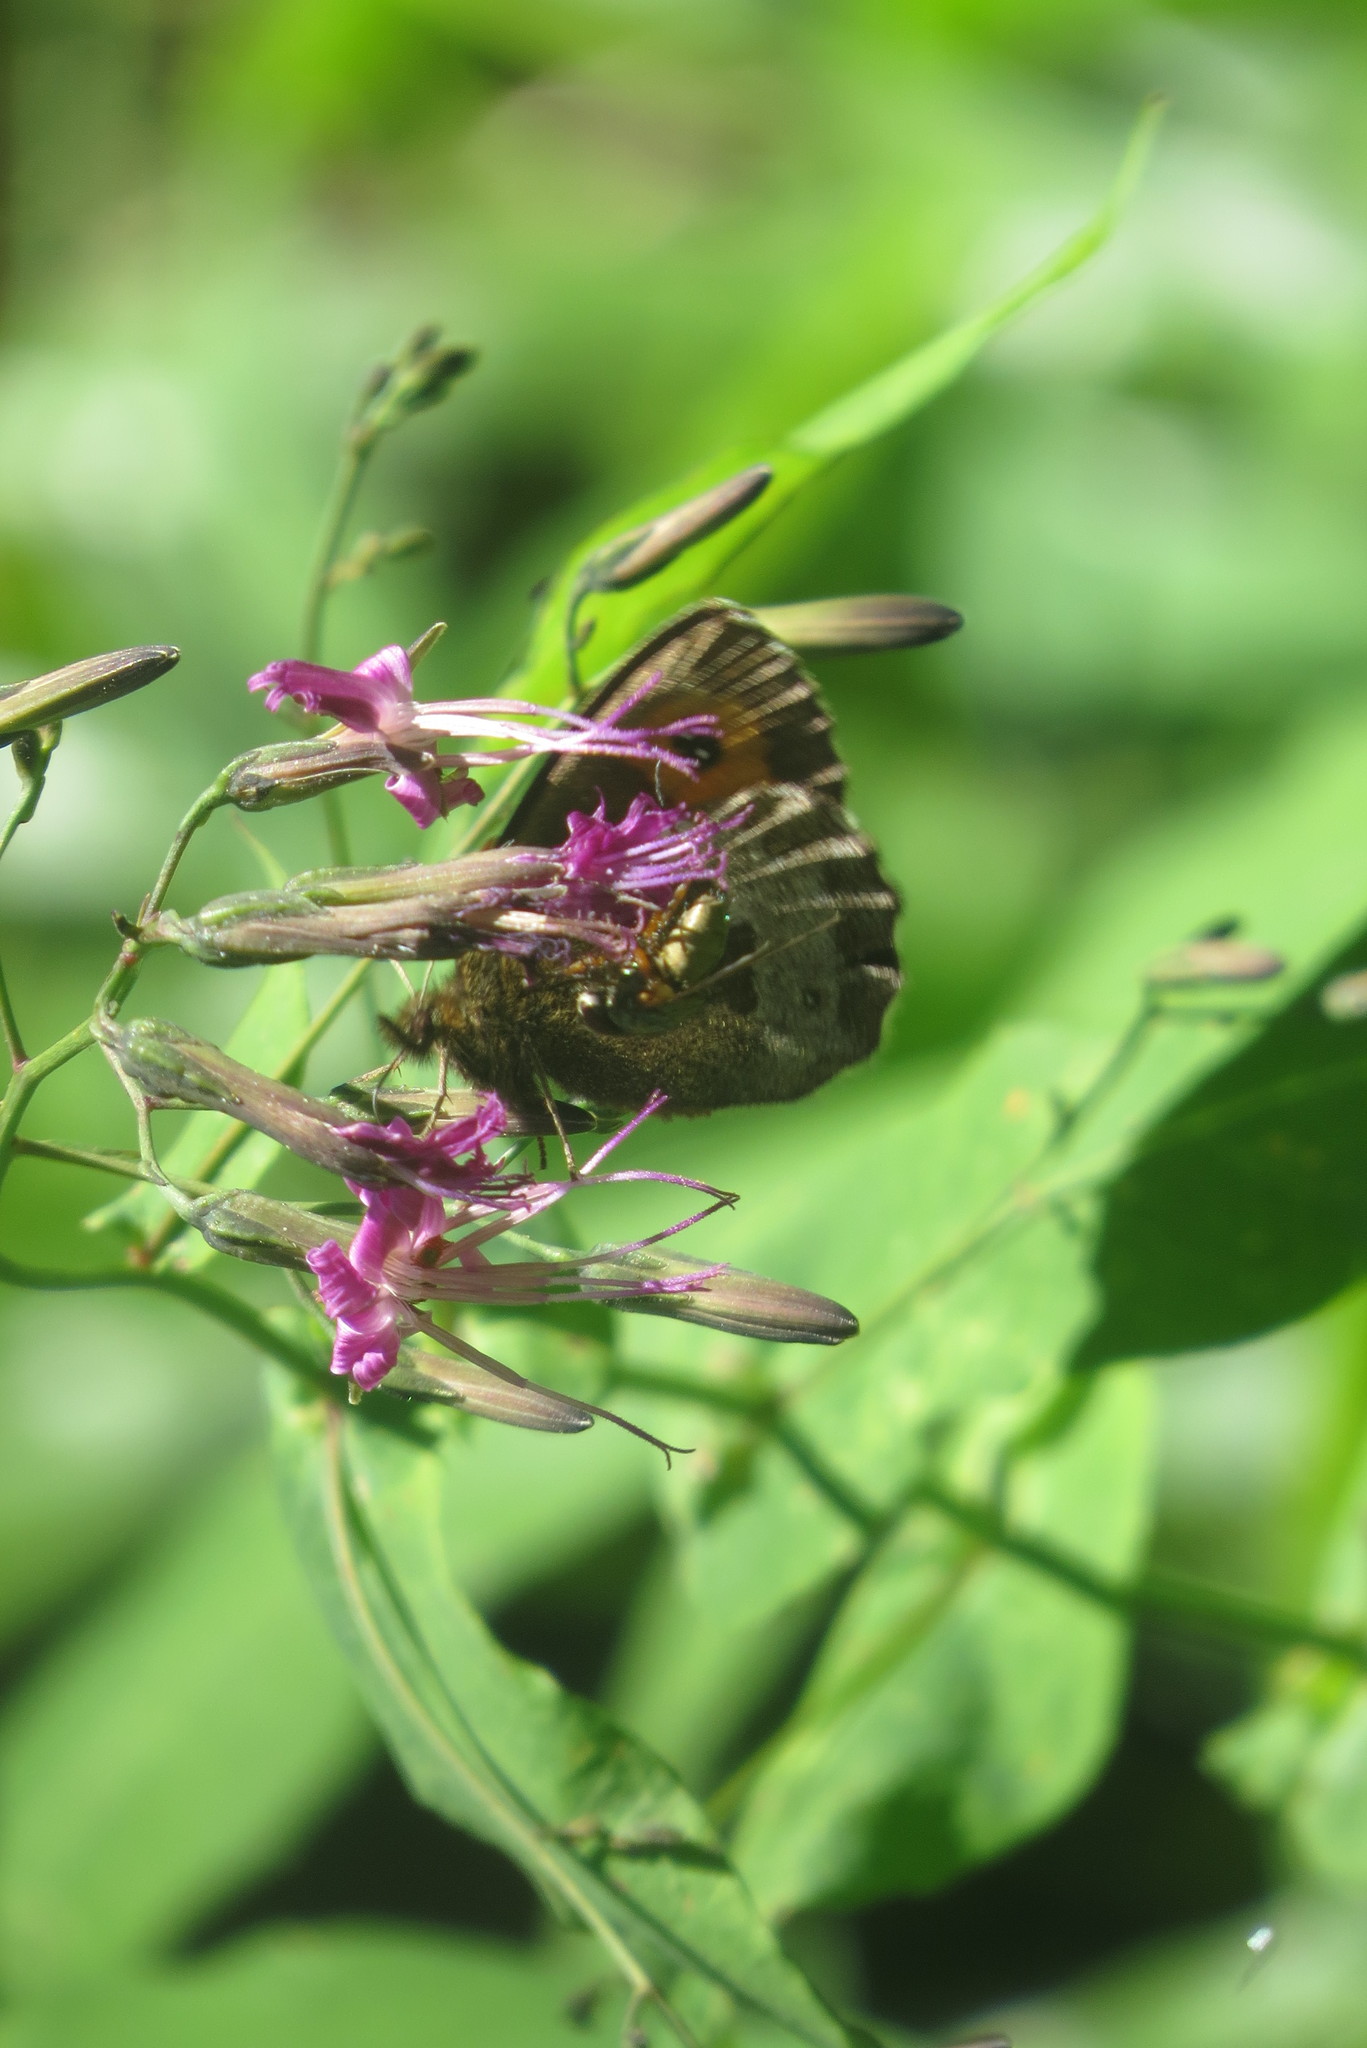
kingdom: Animalia
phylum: Arthropoda
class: Insecta
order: Lepidoptera
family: Nymphalidae
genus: Erebia
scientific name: Erebia euryale
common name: Large ringlet
